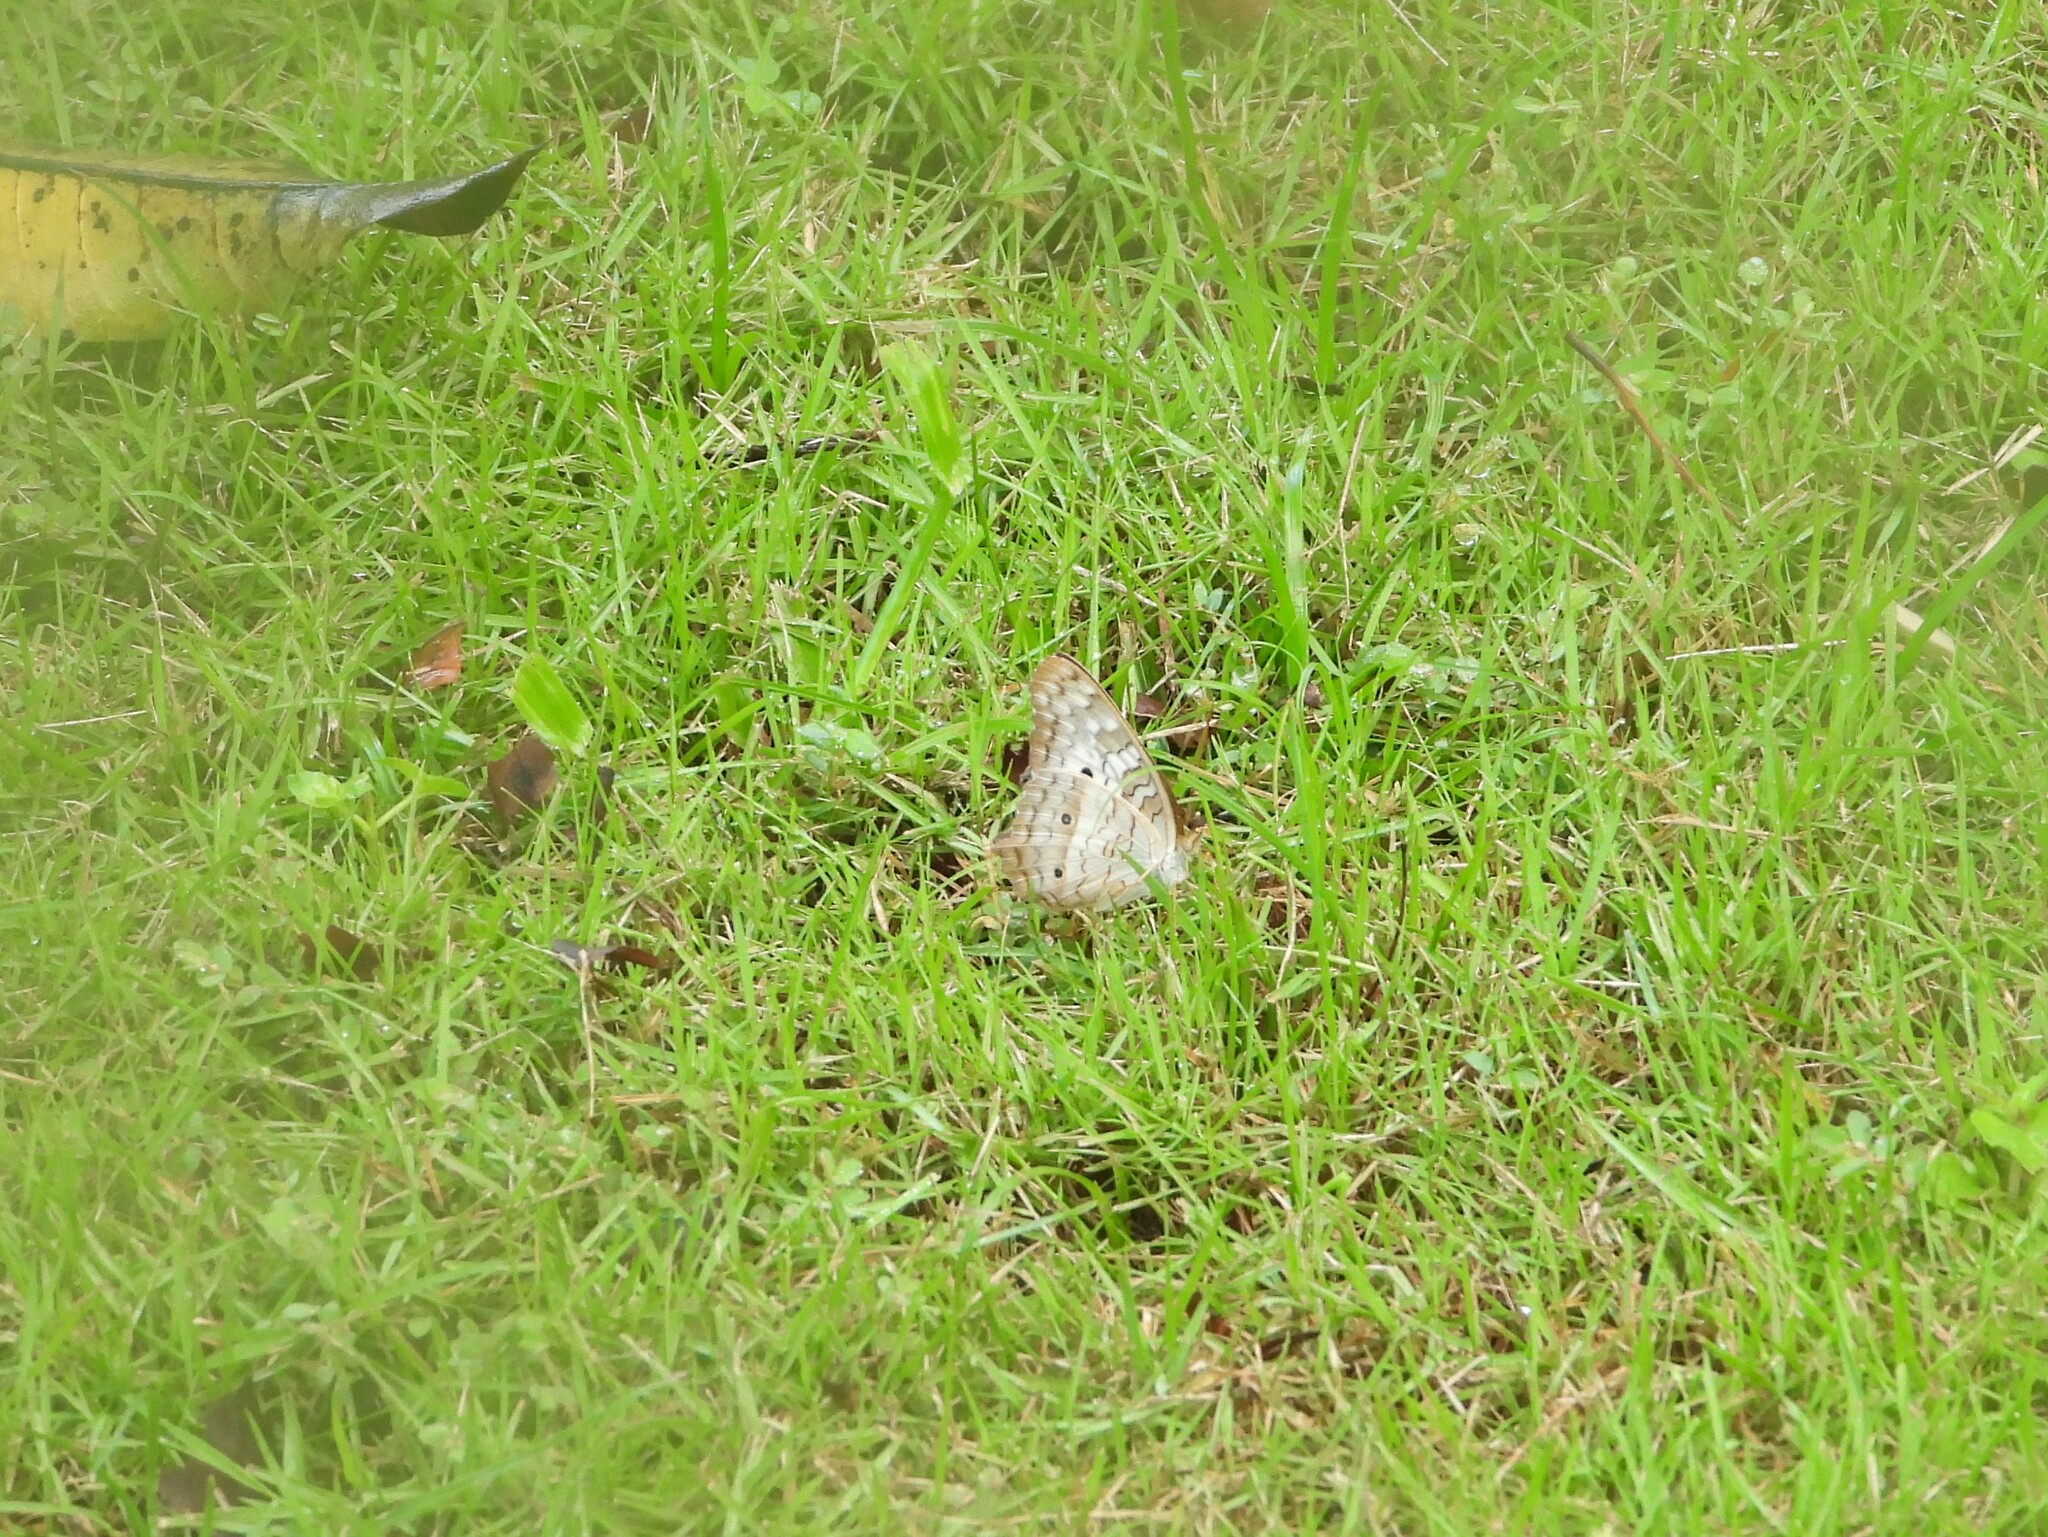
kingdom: Animalia
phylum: Arthropoda
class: Insecta
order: Lepidoptera
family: Nymphalidae
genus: Anartia
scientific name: Anartia jatrophae
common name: White peacock
